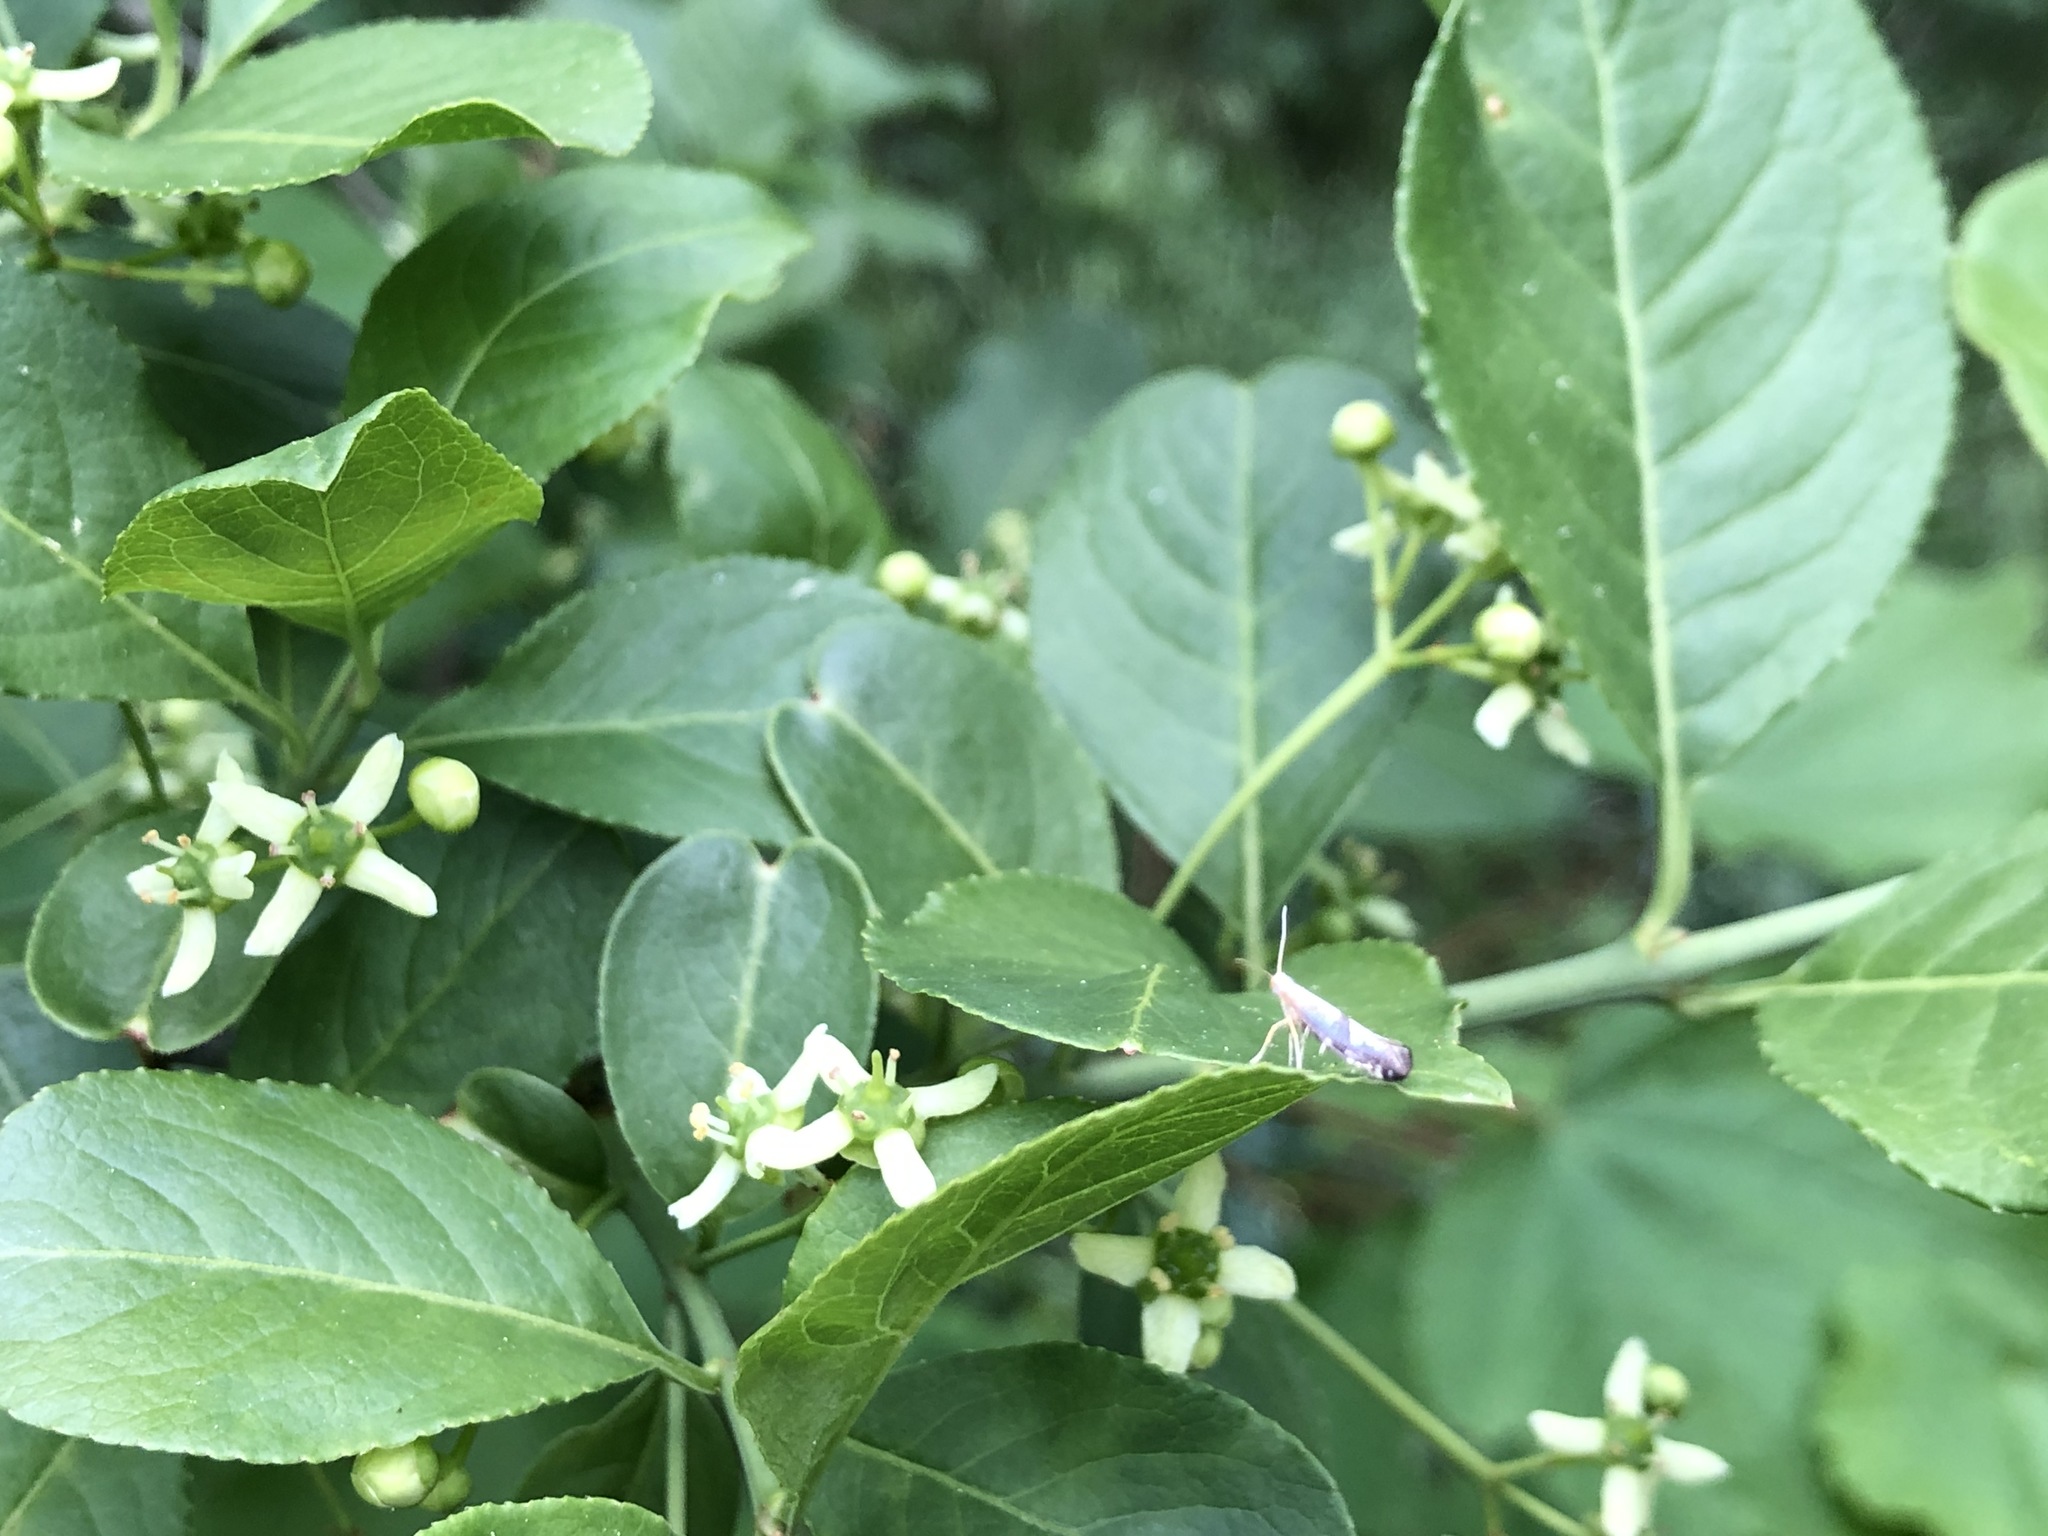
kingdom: Animalia
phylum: Arthropoda
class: Insecta
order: Lepidoptera
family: Argyresthiidae
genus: Argyresthia
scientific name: Argyresthia spinosella
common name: Blackthorn argent
